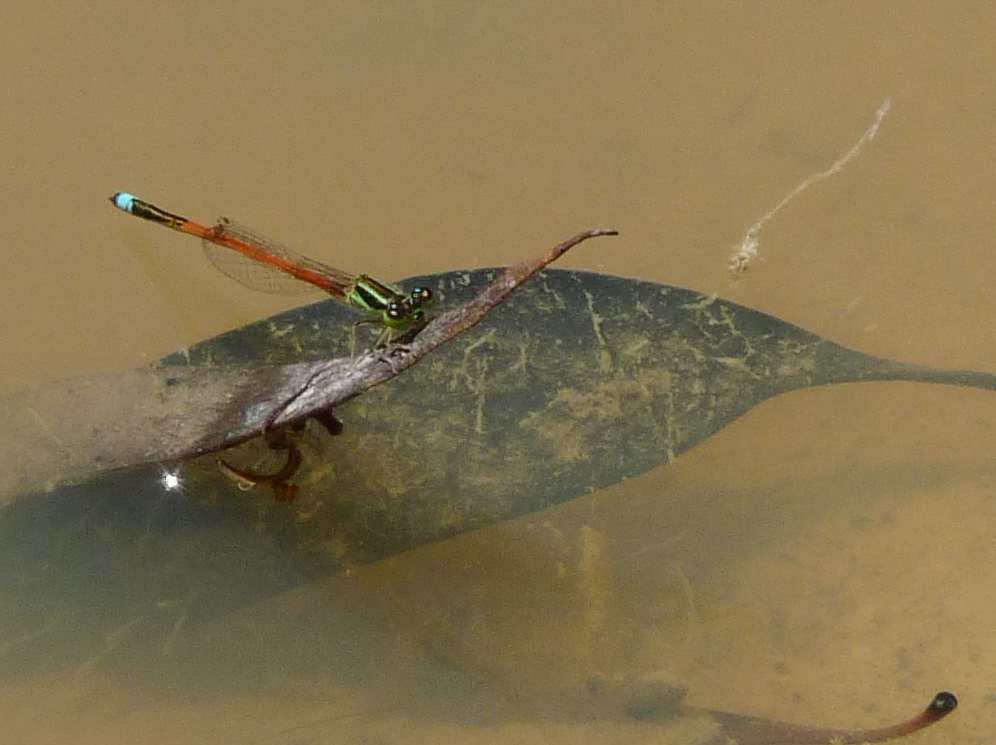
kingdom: Animalia
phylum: Arthropoda
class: Insecta
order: Odonata
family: Coenagrionidae
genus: Ischnura
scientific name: Ischnura aurora
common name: Gossamer damselfly
